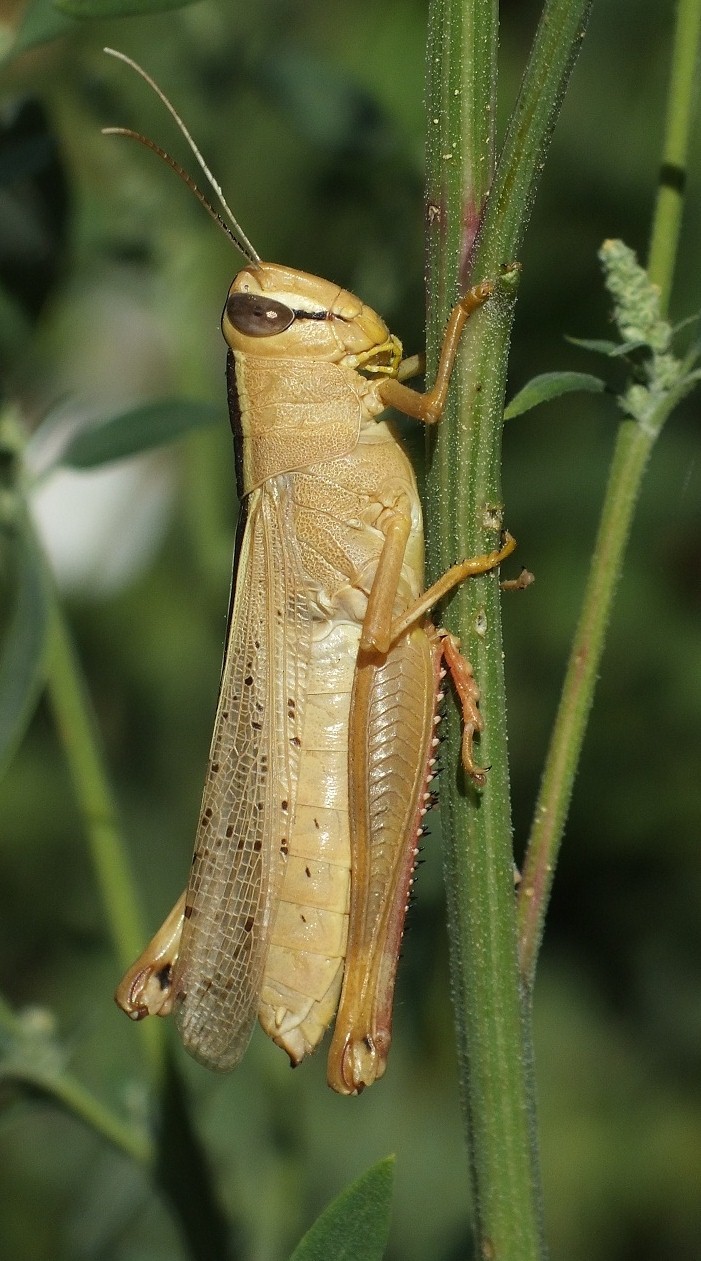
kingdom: Animalia
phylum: Arthropoda
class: Insecta
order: Orthoptera
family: Acrididae
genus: Heteracris
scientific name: Heteracris pterosticha
